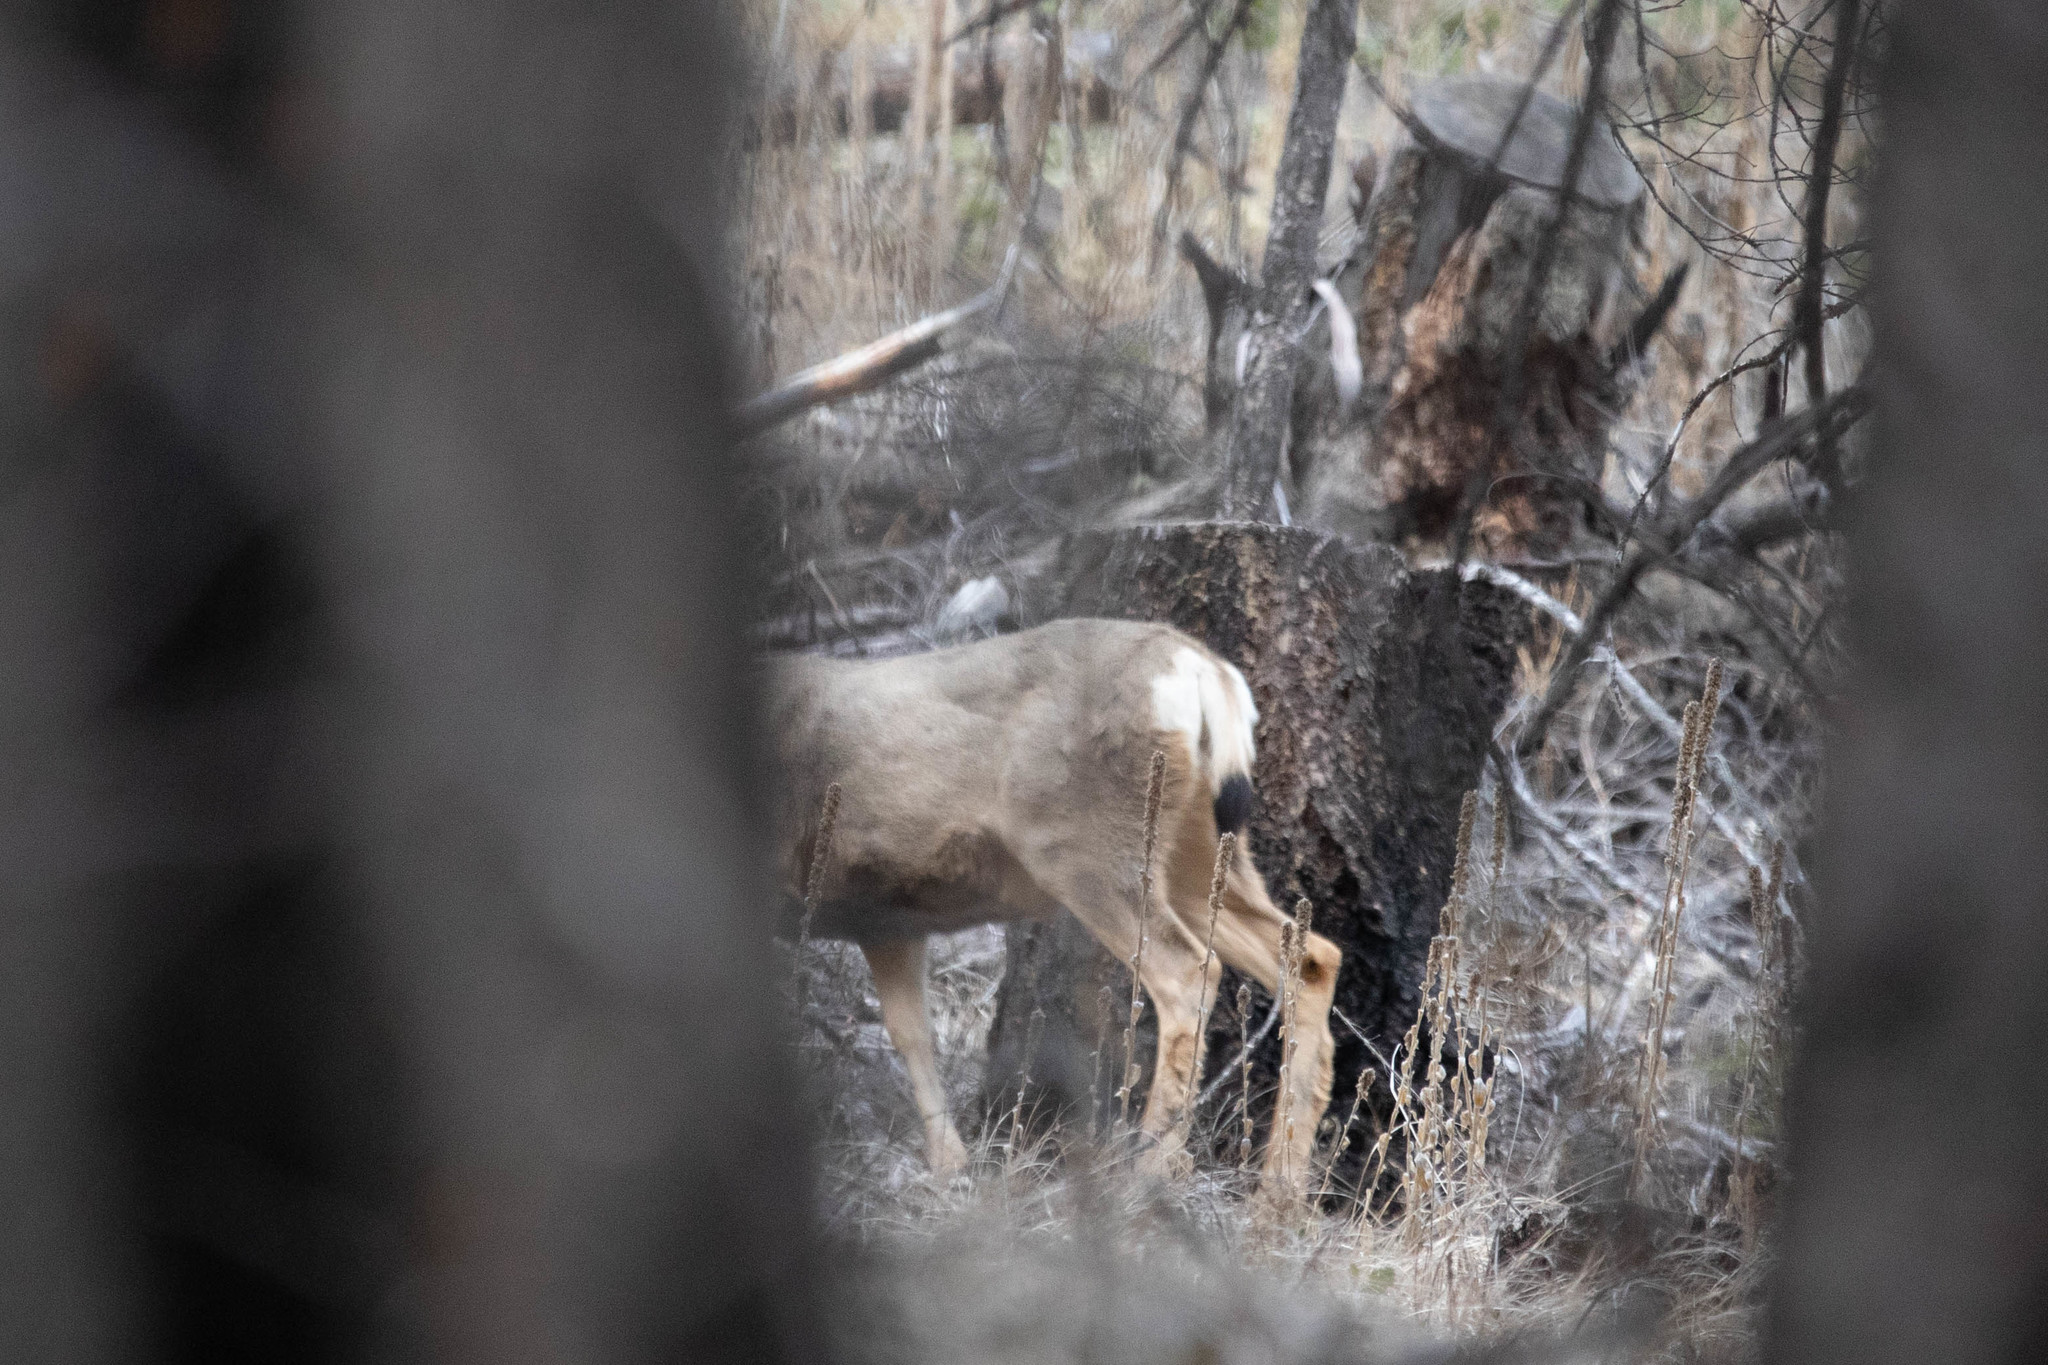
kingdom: Animalia
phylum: Chordata
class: Mammalia
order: Artiodactyla
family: Cervidae
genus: Odocoileus
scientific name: Odocoileus hemionus
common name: Mule deer
